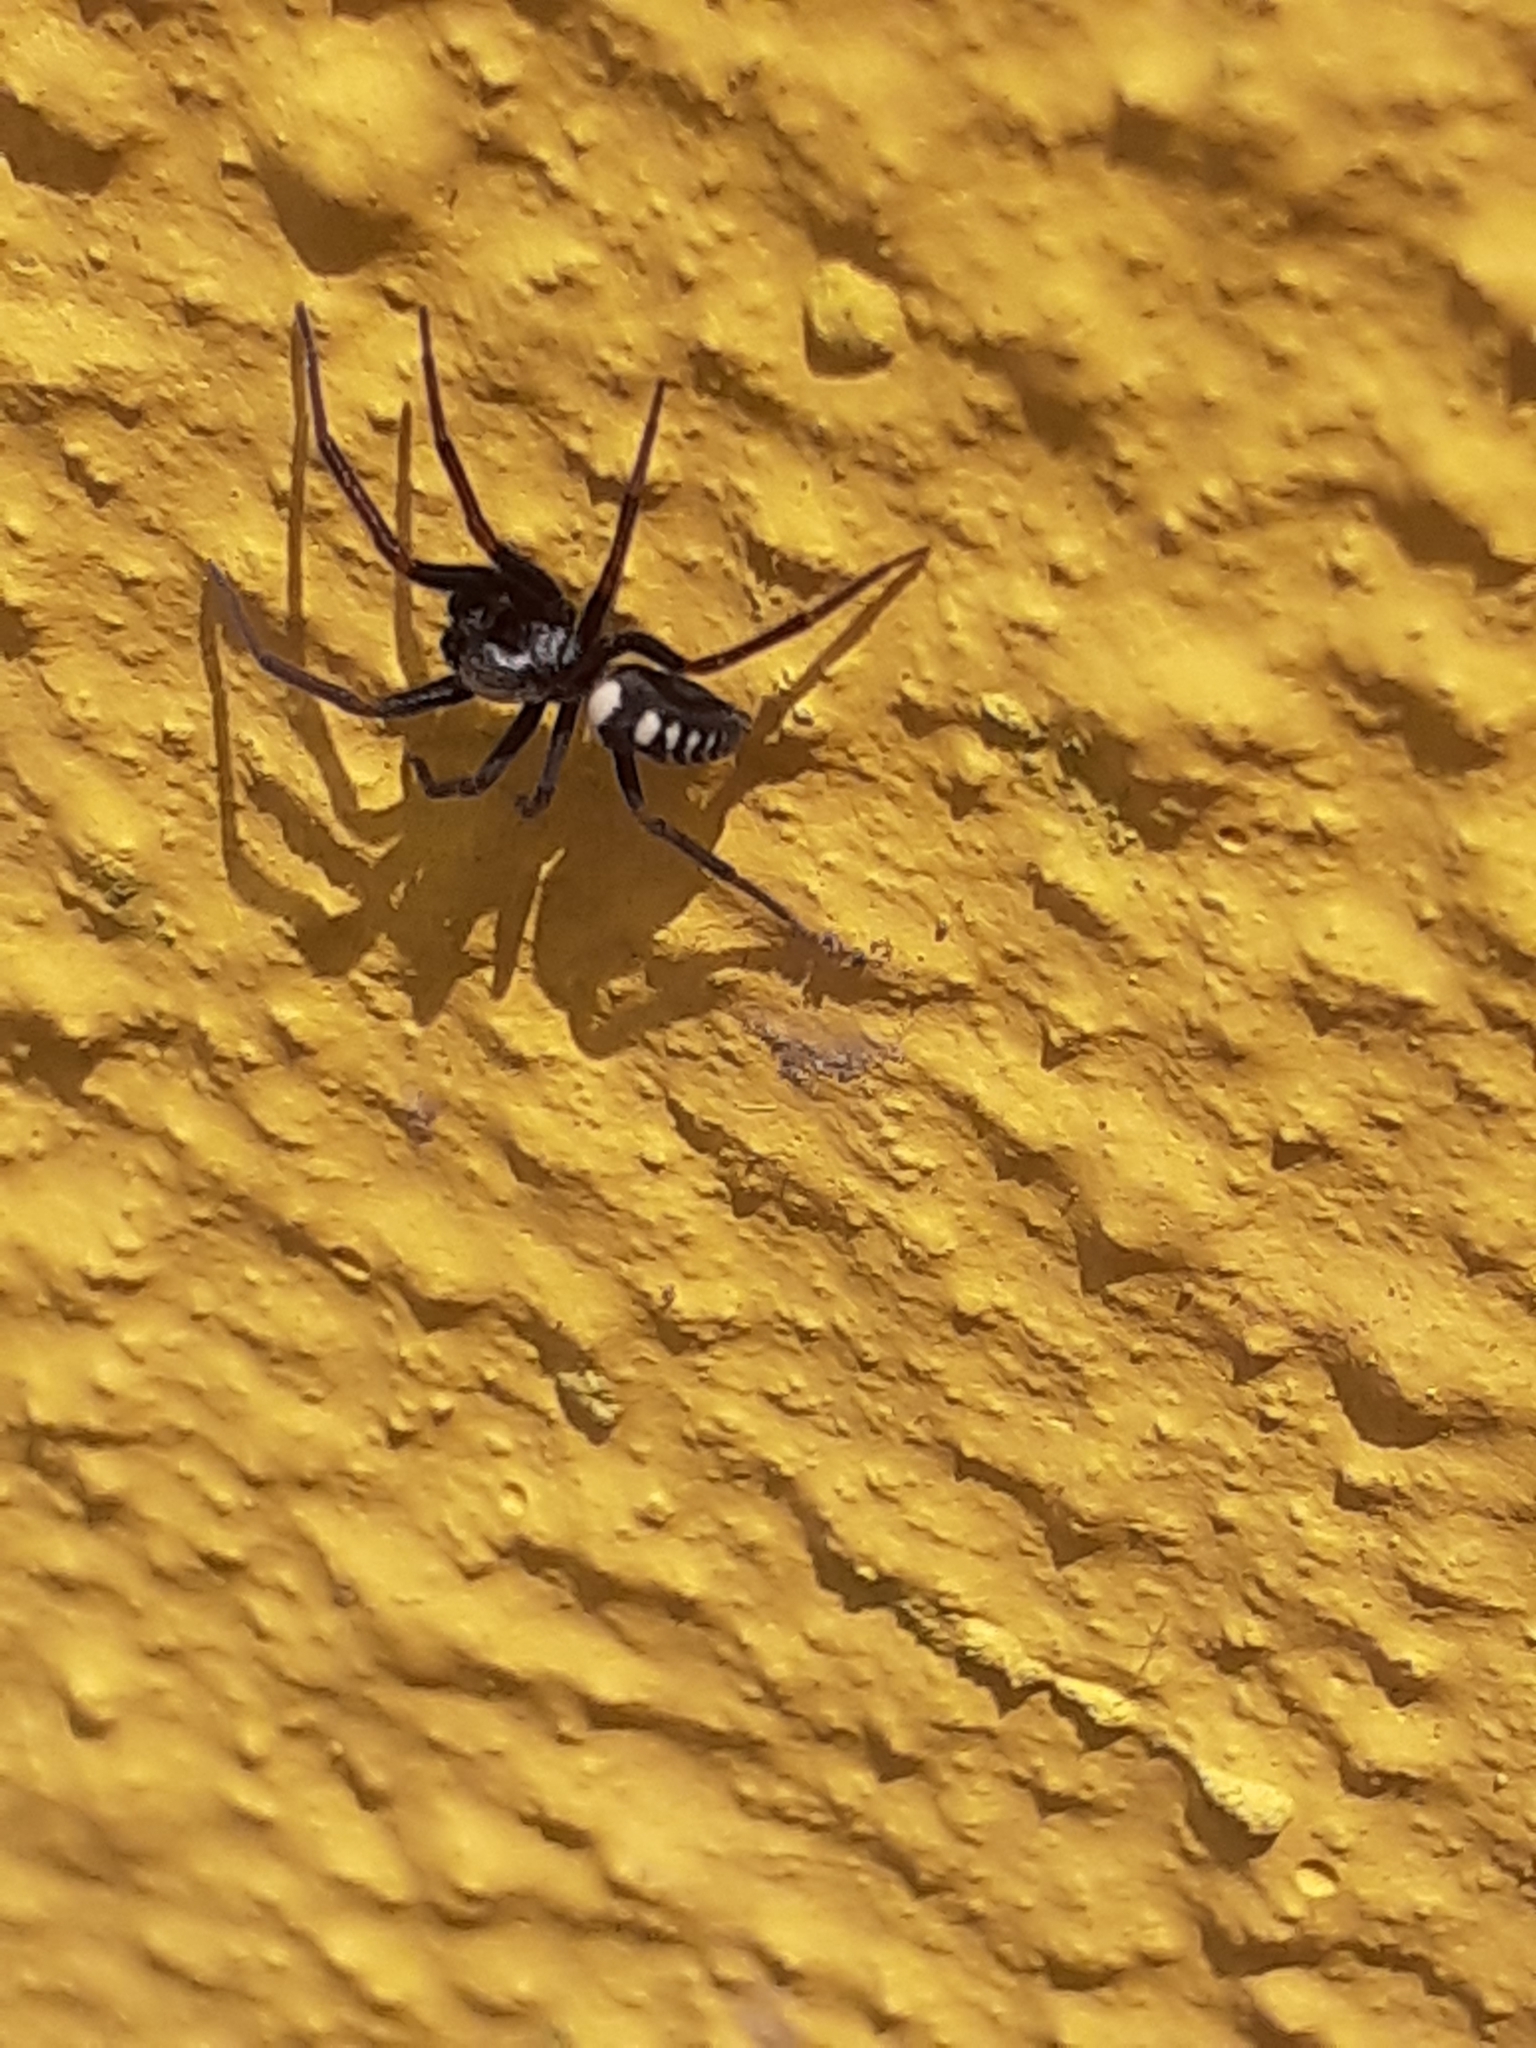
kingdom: Animalia
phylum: Arthropoda
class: Arachnida
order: Araneae
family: Titanoecidae
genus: Nurscia
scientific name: Nurscia albofasciata
